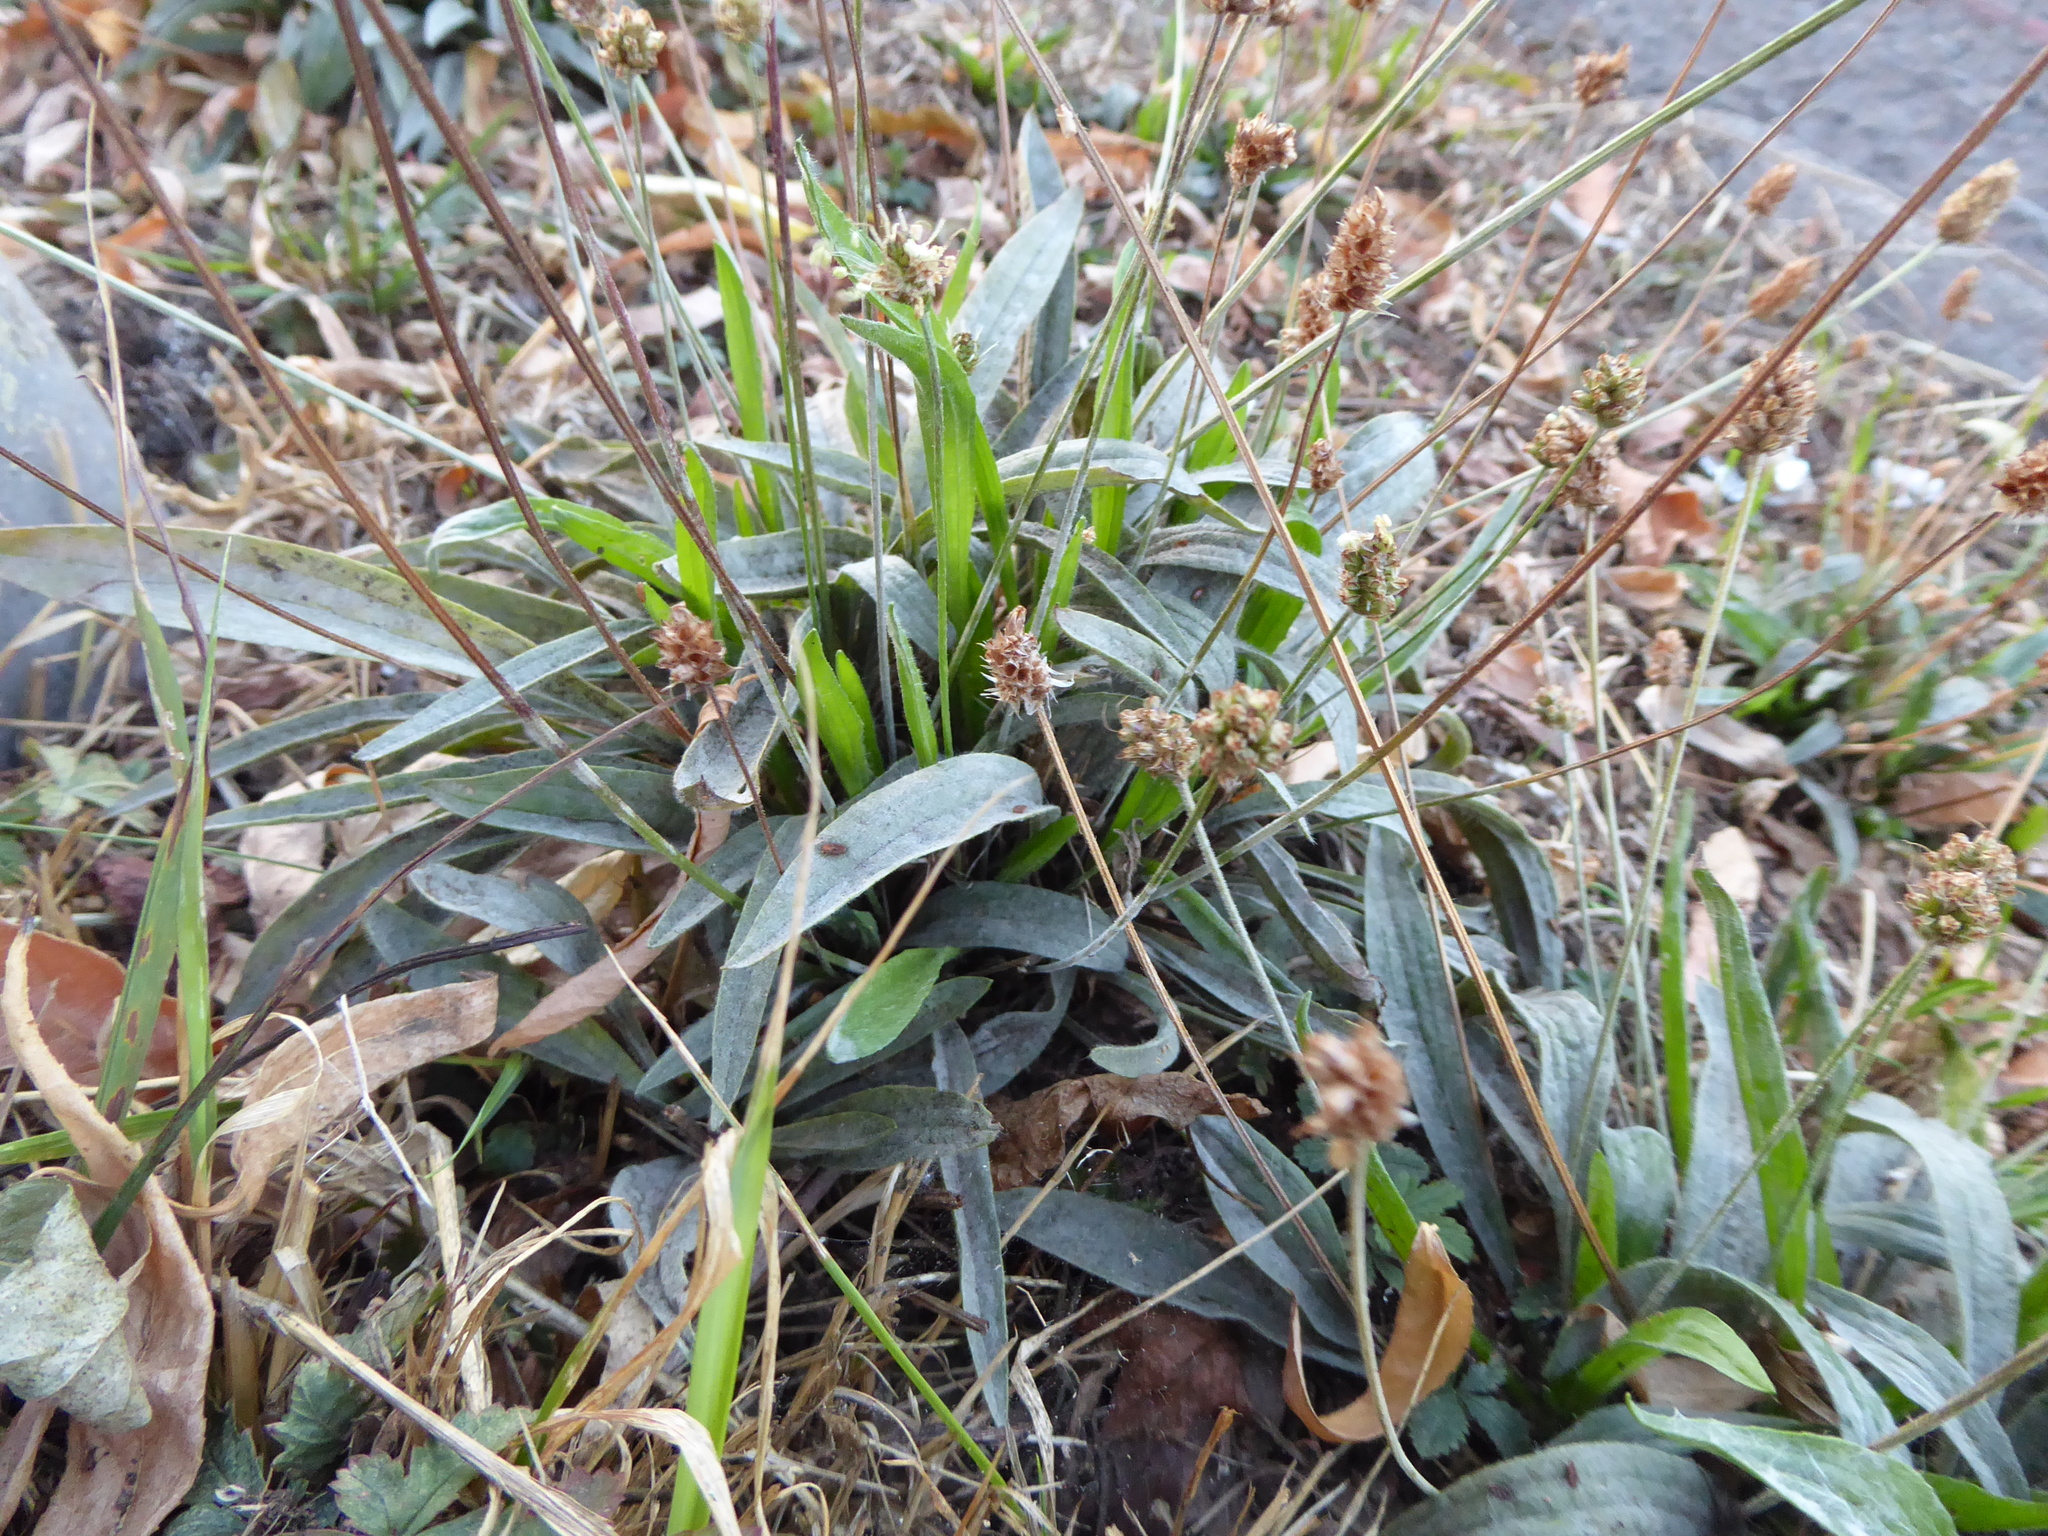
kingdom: Plantae
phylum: Tracheophyta
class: Magnoliopsida
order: Lamiales
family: Plantaginaceae
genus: Plantago
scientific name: Plantago lanceolata
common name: Ribwort plantain
